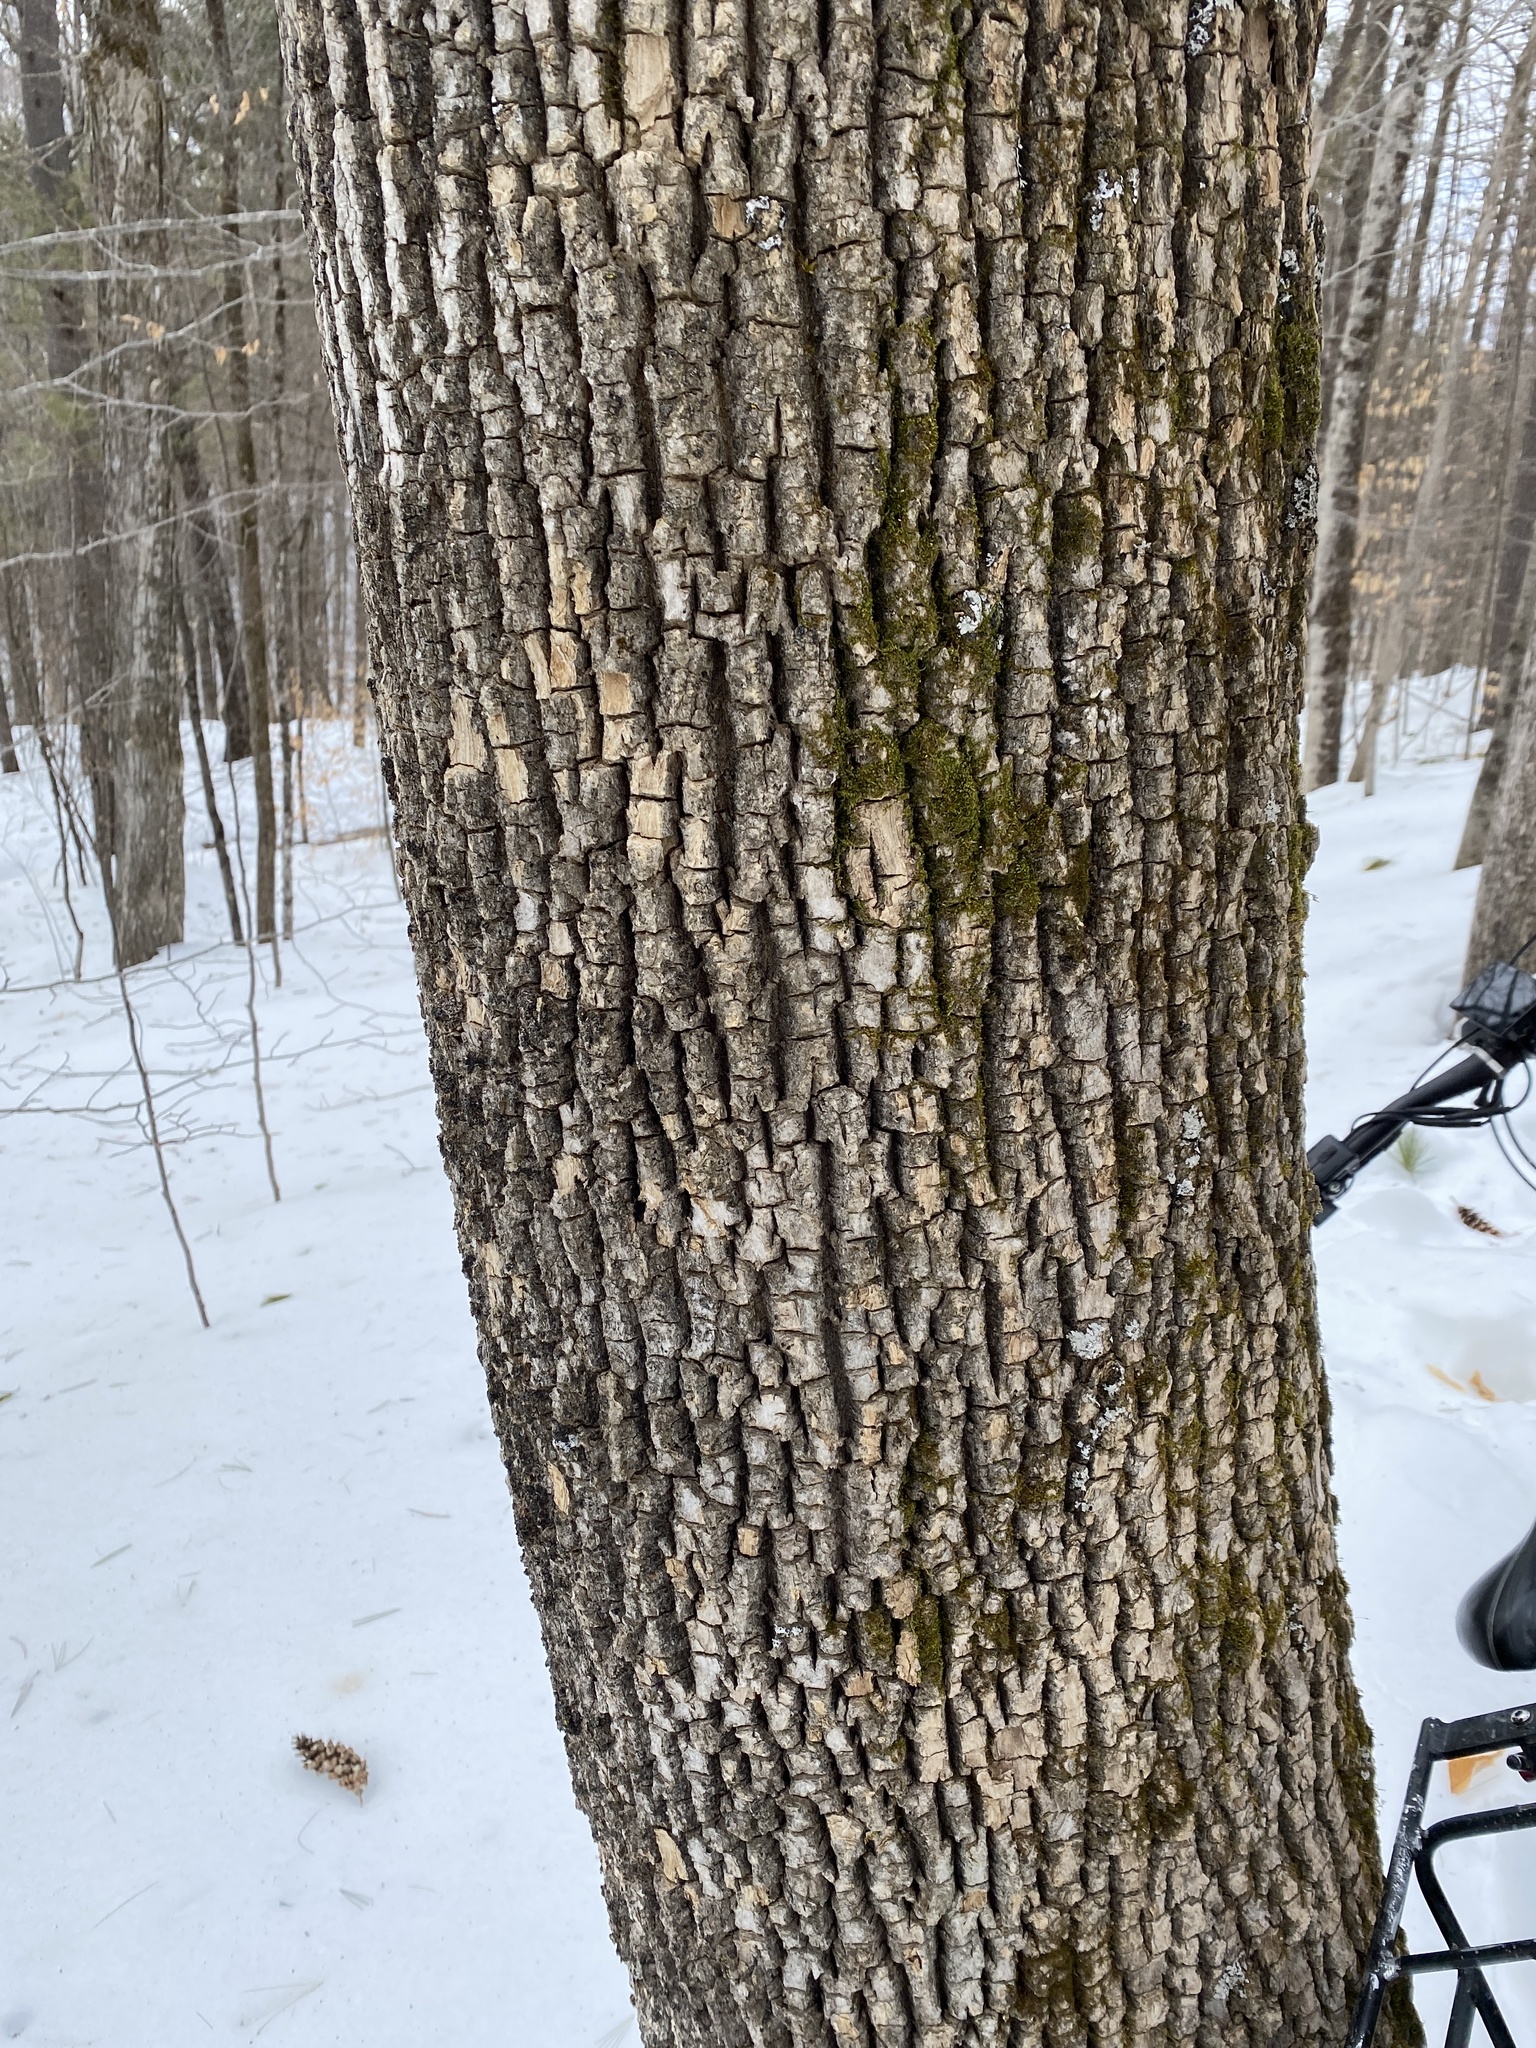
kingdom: Plantae
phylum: Tracheophyta
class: Magnoliopsida
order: Lamiales
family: Oleaceae
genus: Fraxinus
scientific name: Fraxinus americana
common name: White ash
